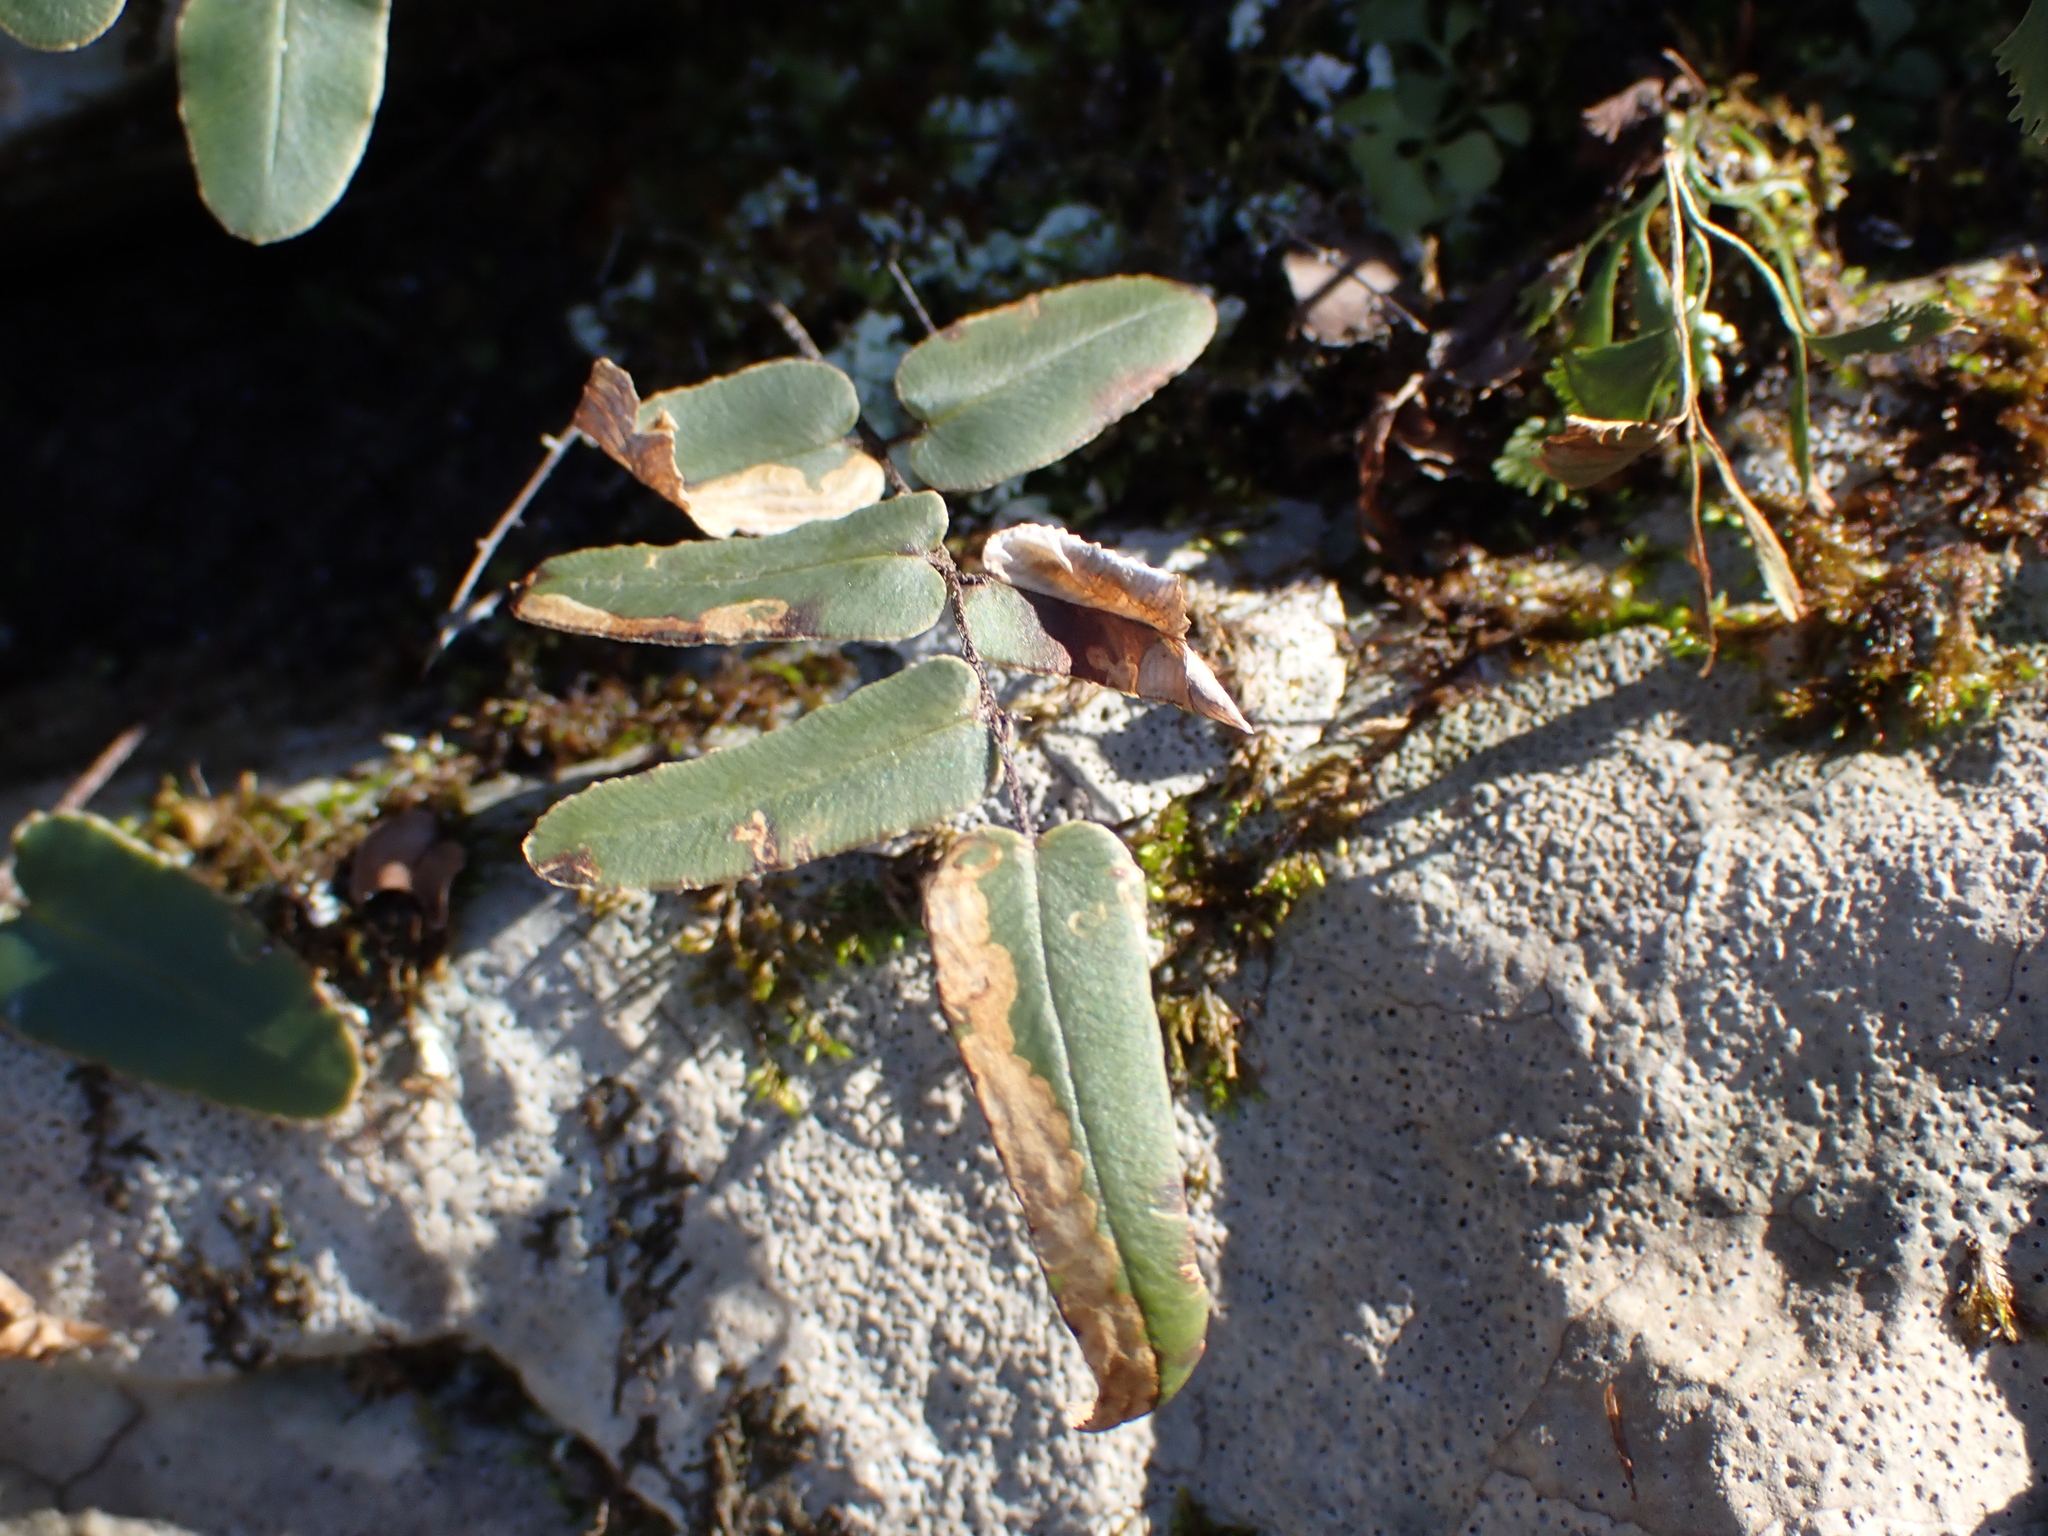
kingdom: Plantae
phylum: Tracheophyta
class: Polypodiopsida
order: Polypodiales
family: Pteridaceae
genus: Pellaea
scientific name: Pellaea atropurpurea
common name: Hairy cliffbrake
